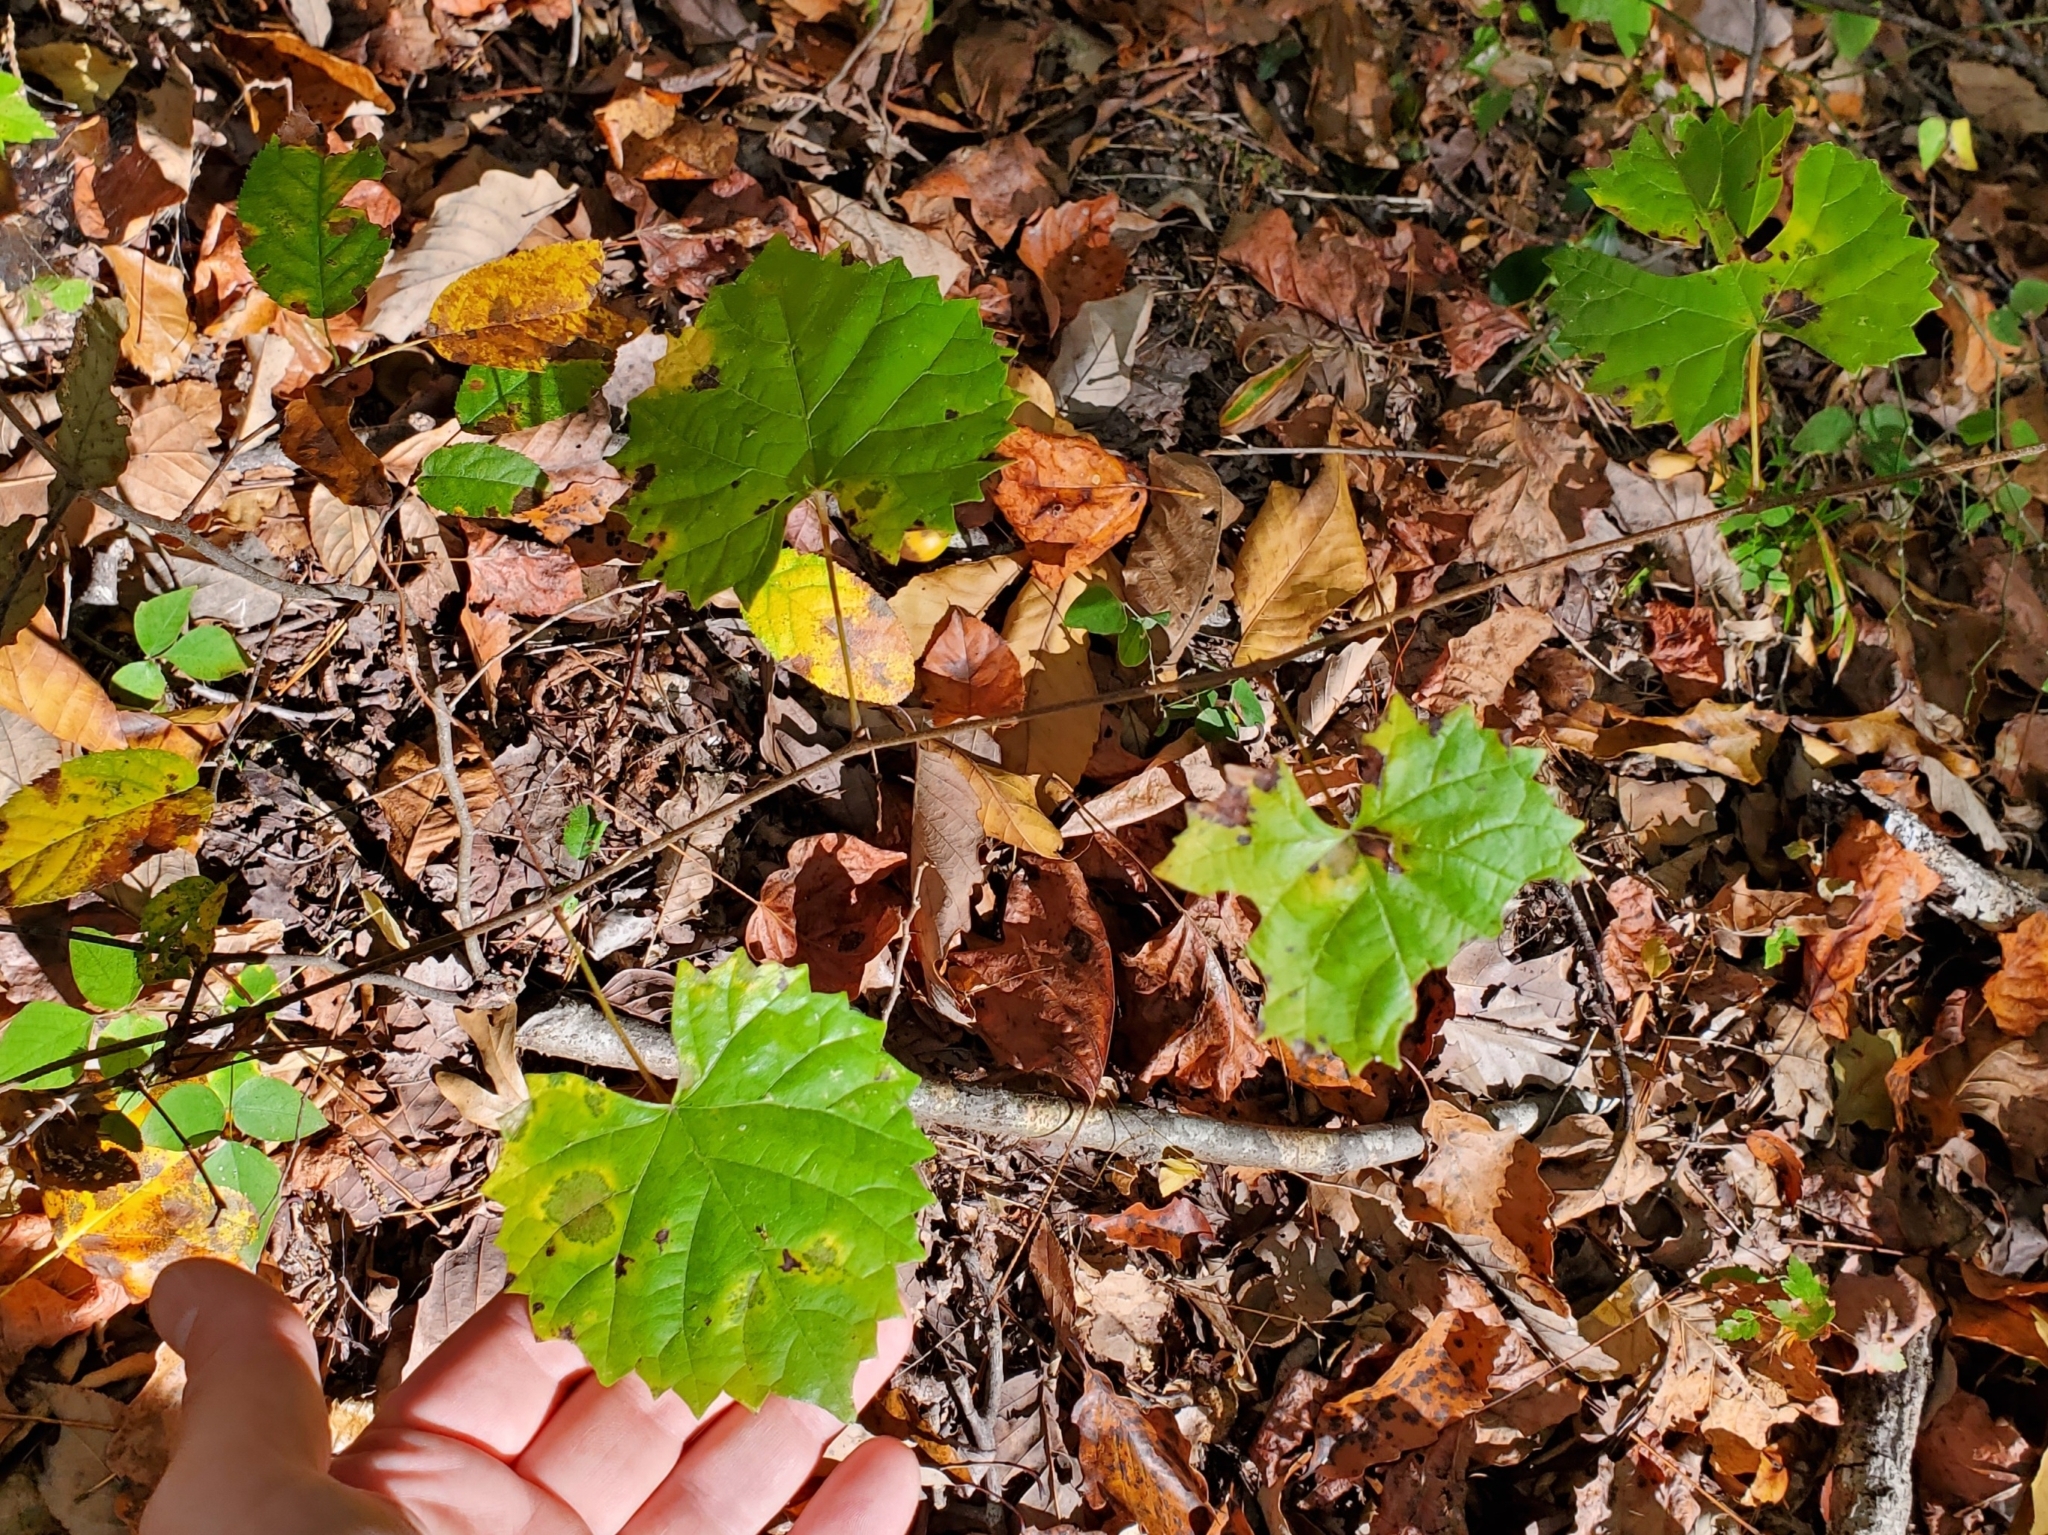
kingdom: Plantae
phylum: Tracheophyta
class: Magnoliopsida
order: Vitales
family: Vitaceae
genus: Vitis
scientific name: Vitis rotundifolia
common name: Muscadine grape
